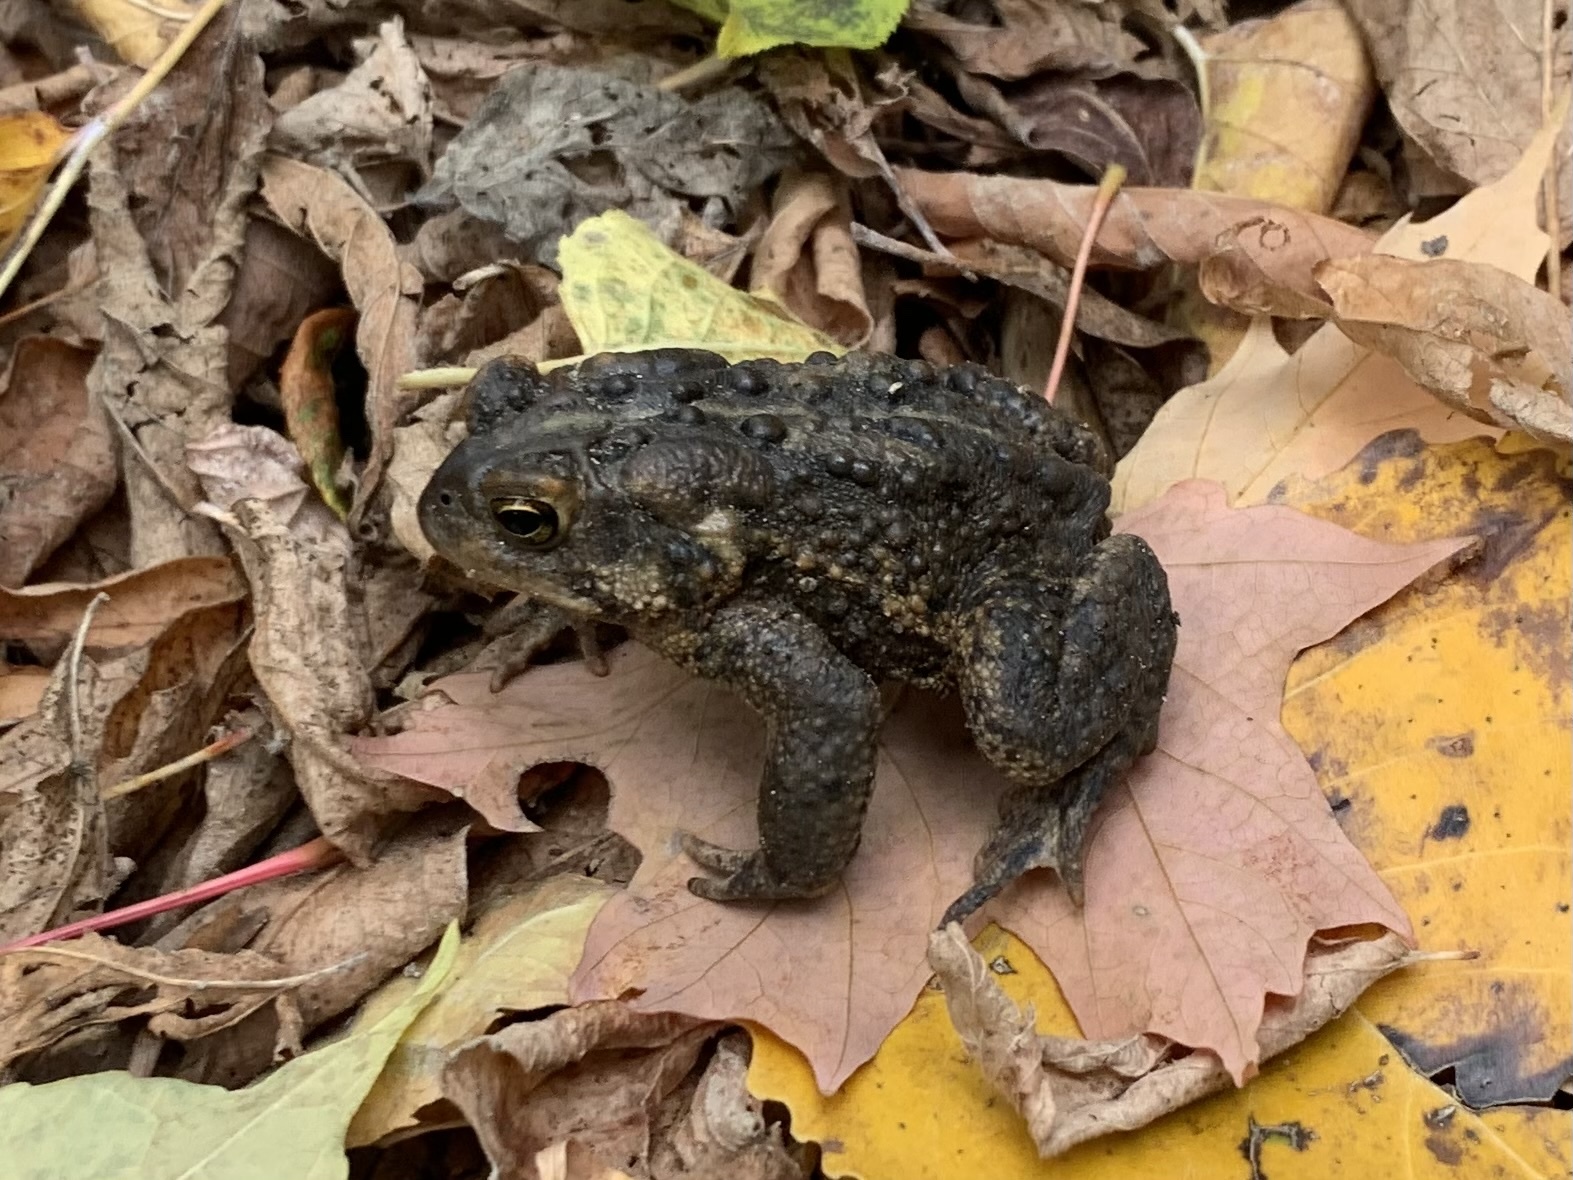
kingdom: Animalia
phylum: Chordata
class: Amphibia
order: Anura
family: Bufonidae
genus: Anaxyrus
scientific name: Anaxyrus americanus
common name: American toad
